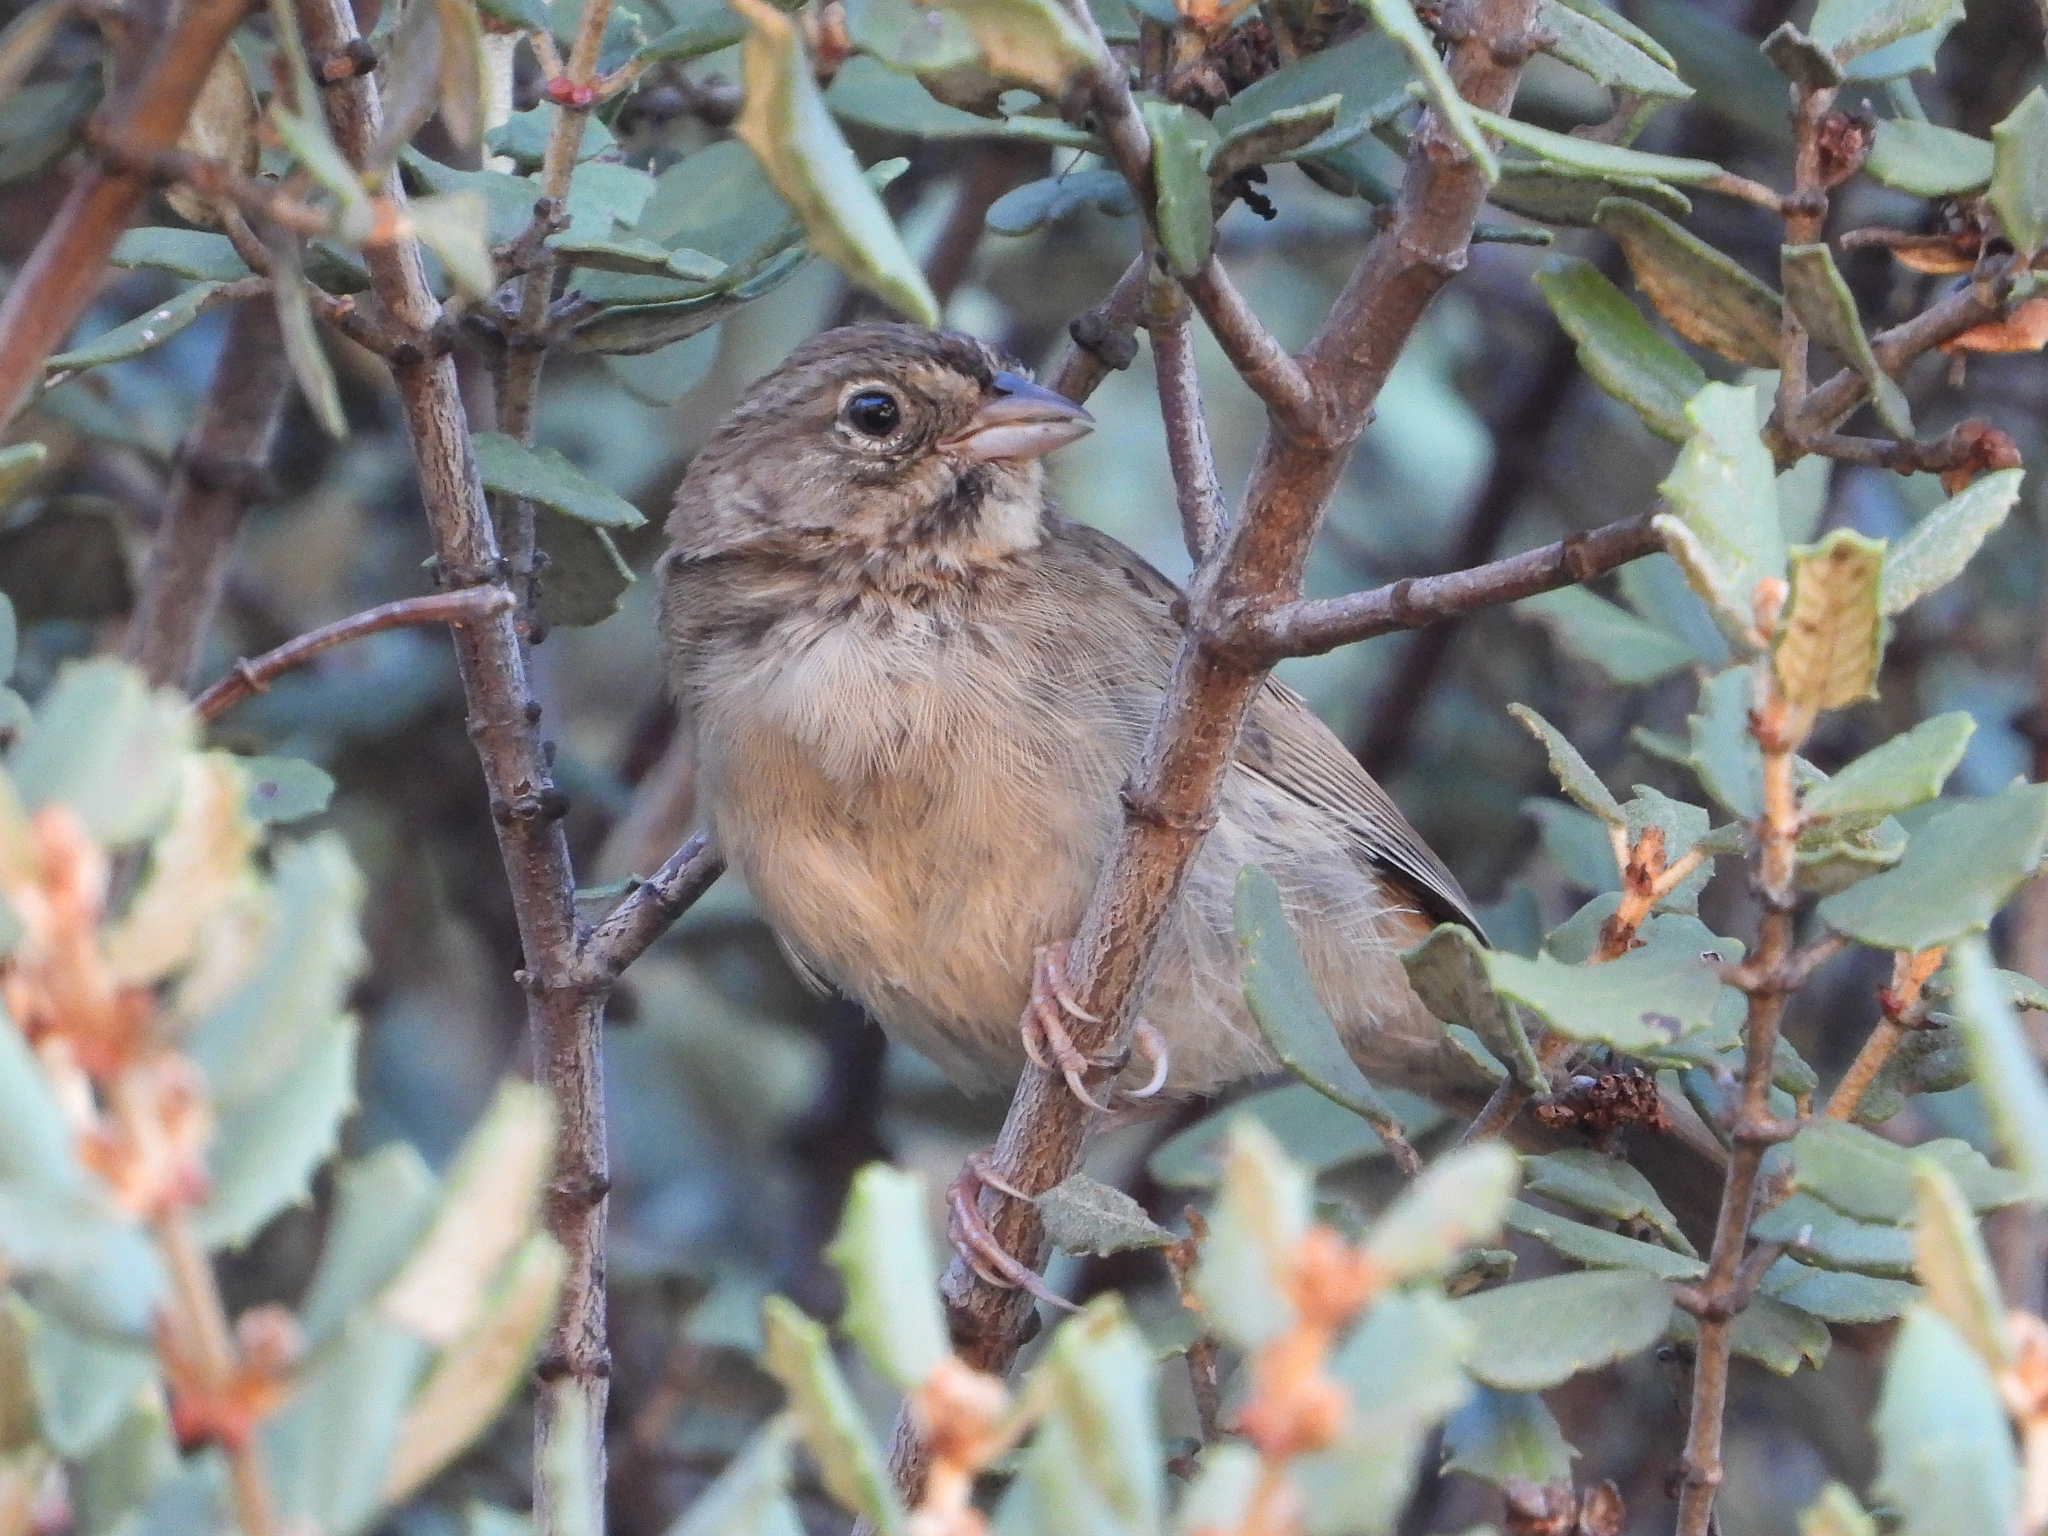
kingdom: Animalia
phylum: Chordata
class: Aves
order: Passeriformes
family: Passerellidae
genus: Aimophila
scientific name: Aimophila ruficeps
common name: Rufous-crowned sparrow
